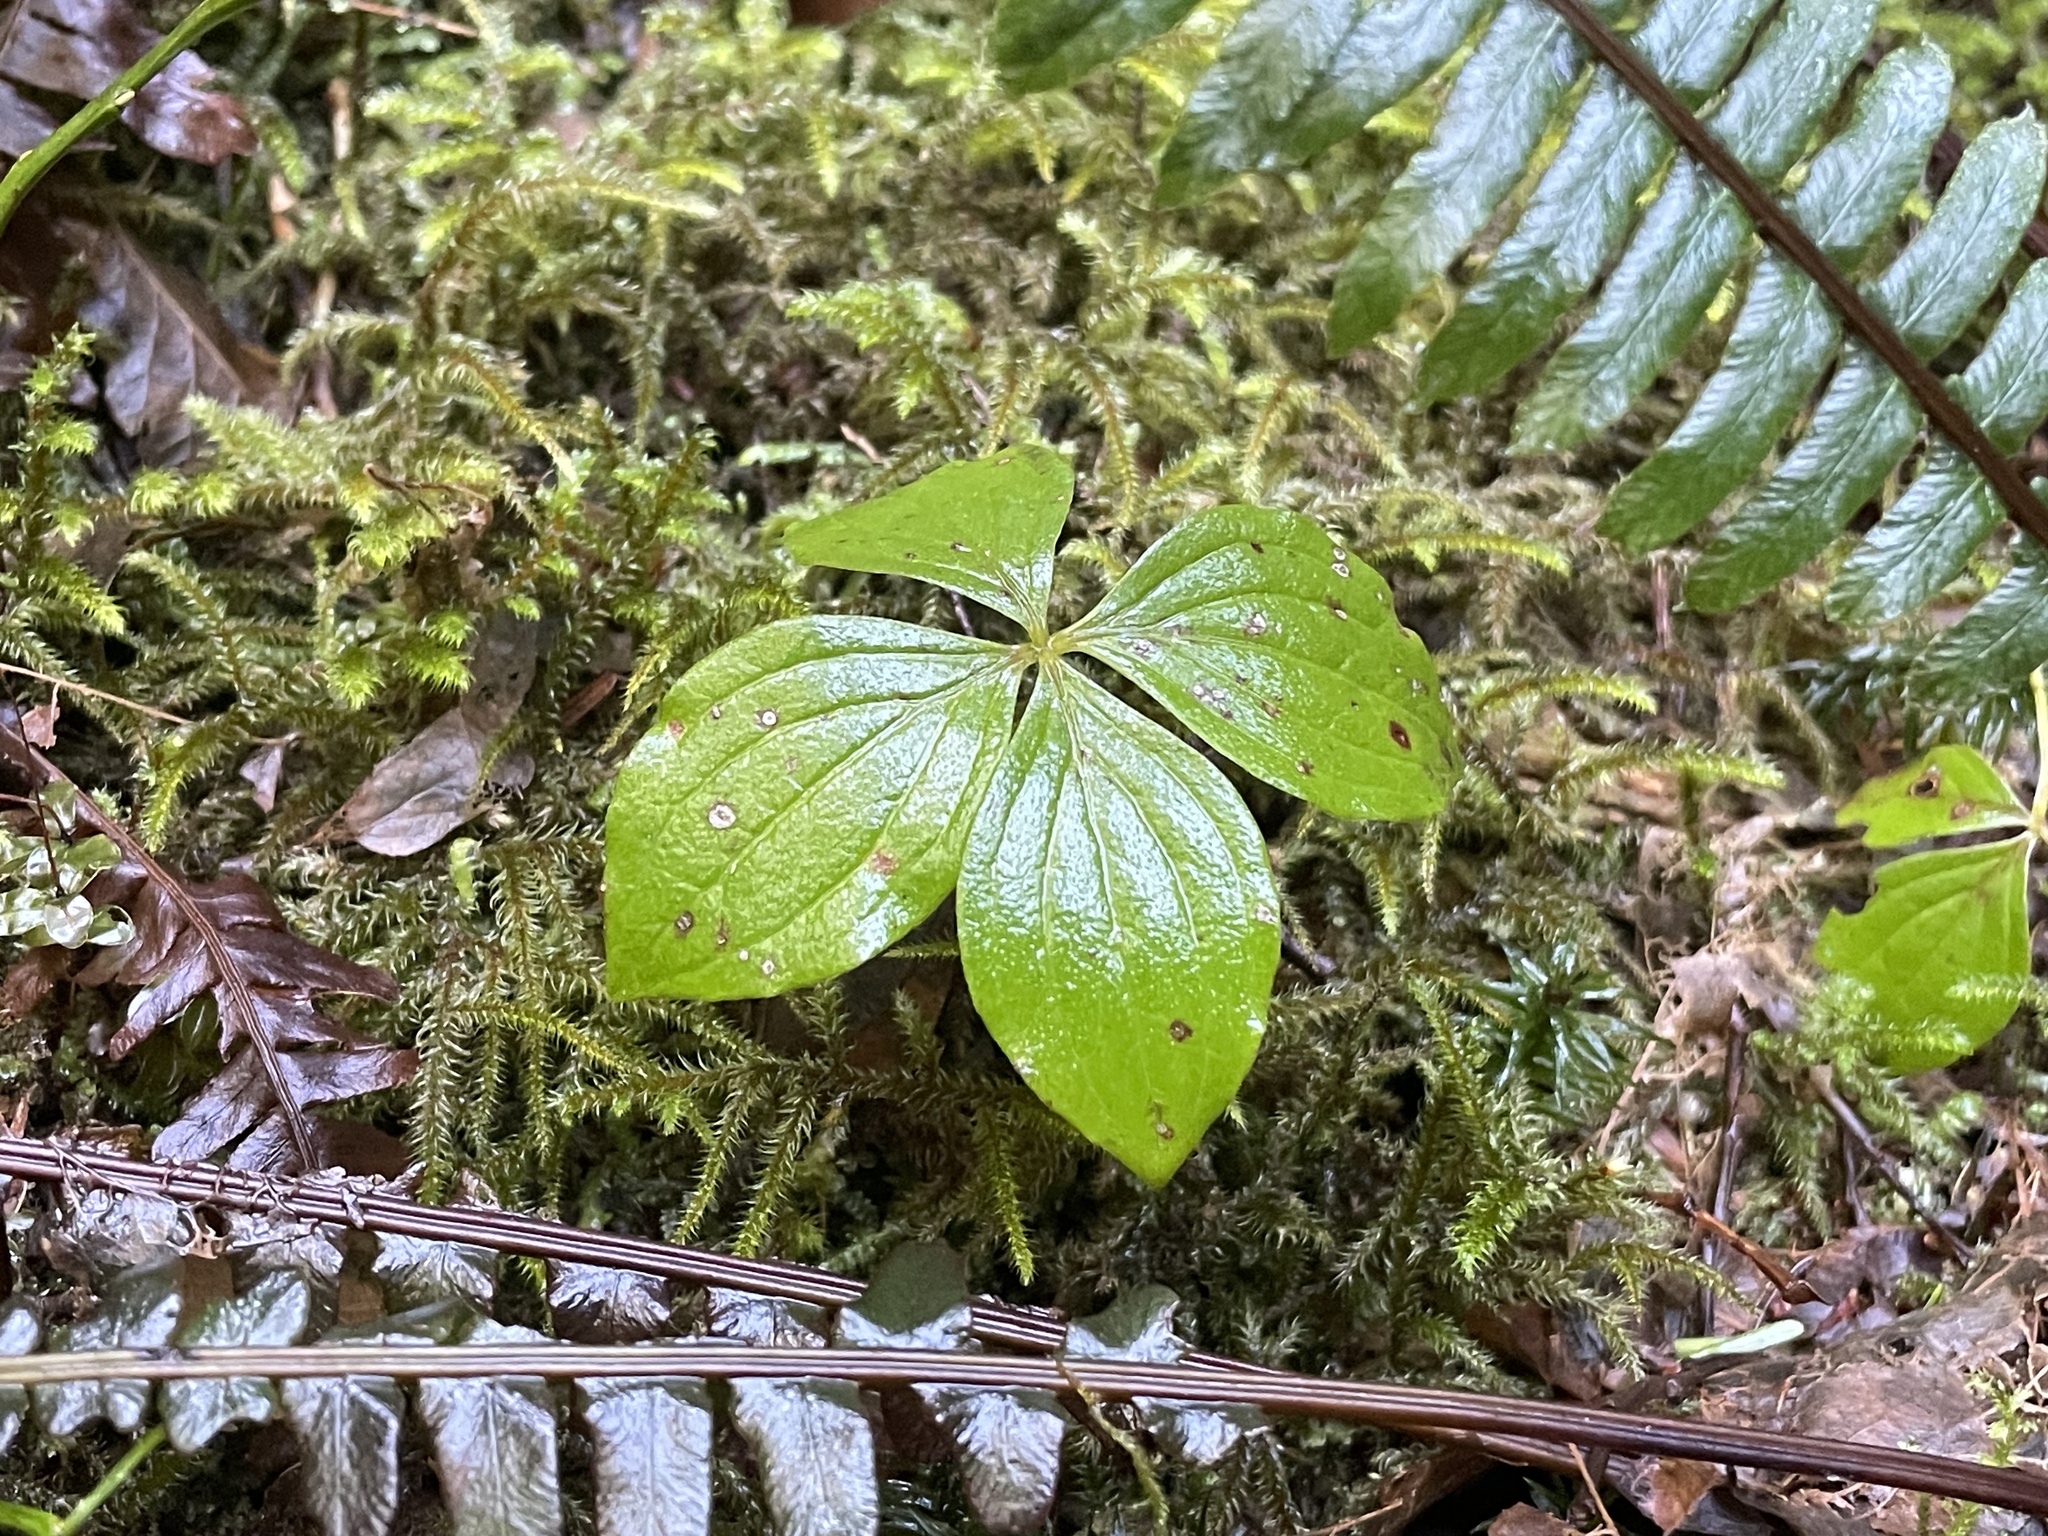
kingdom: Plantae
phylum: Tracheophyta
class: Magnoliopsida
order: Cornales
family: Cornaceae
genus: Cornus
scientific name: Cornus unalaschkensis
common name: Alaska bunchberry
